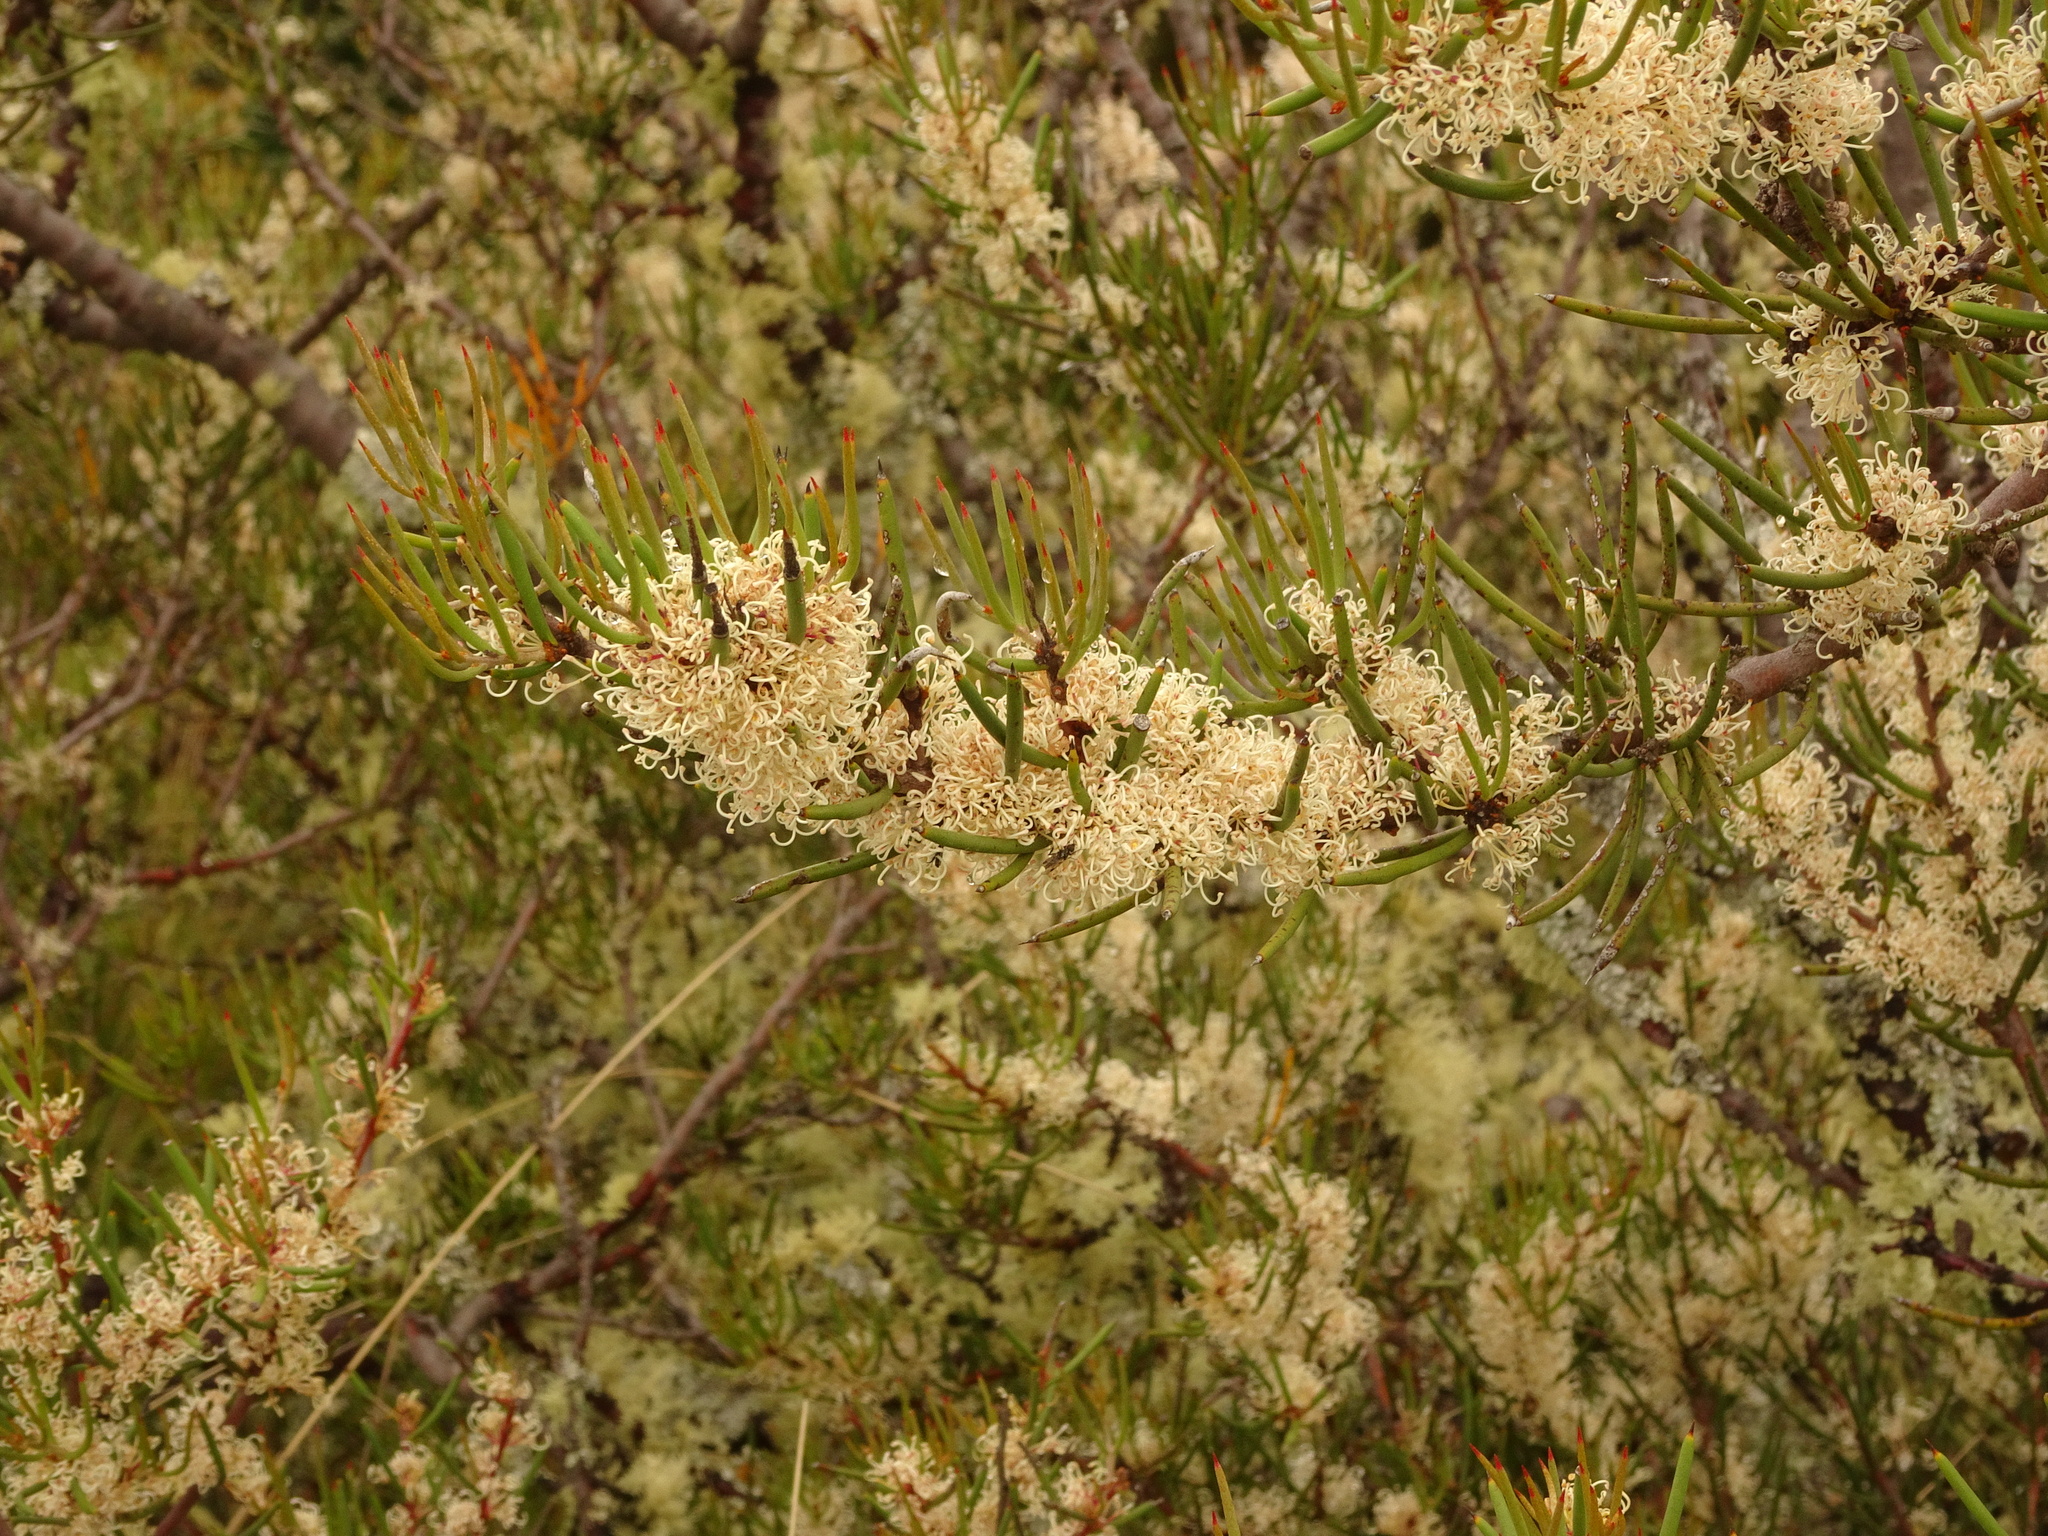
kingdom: Plantae
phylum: Tracheophyta
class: Magnoliopsida
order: Proteales
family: Proteaceae
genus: Hakea
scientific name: Hakea microcarpa
